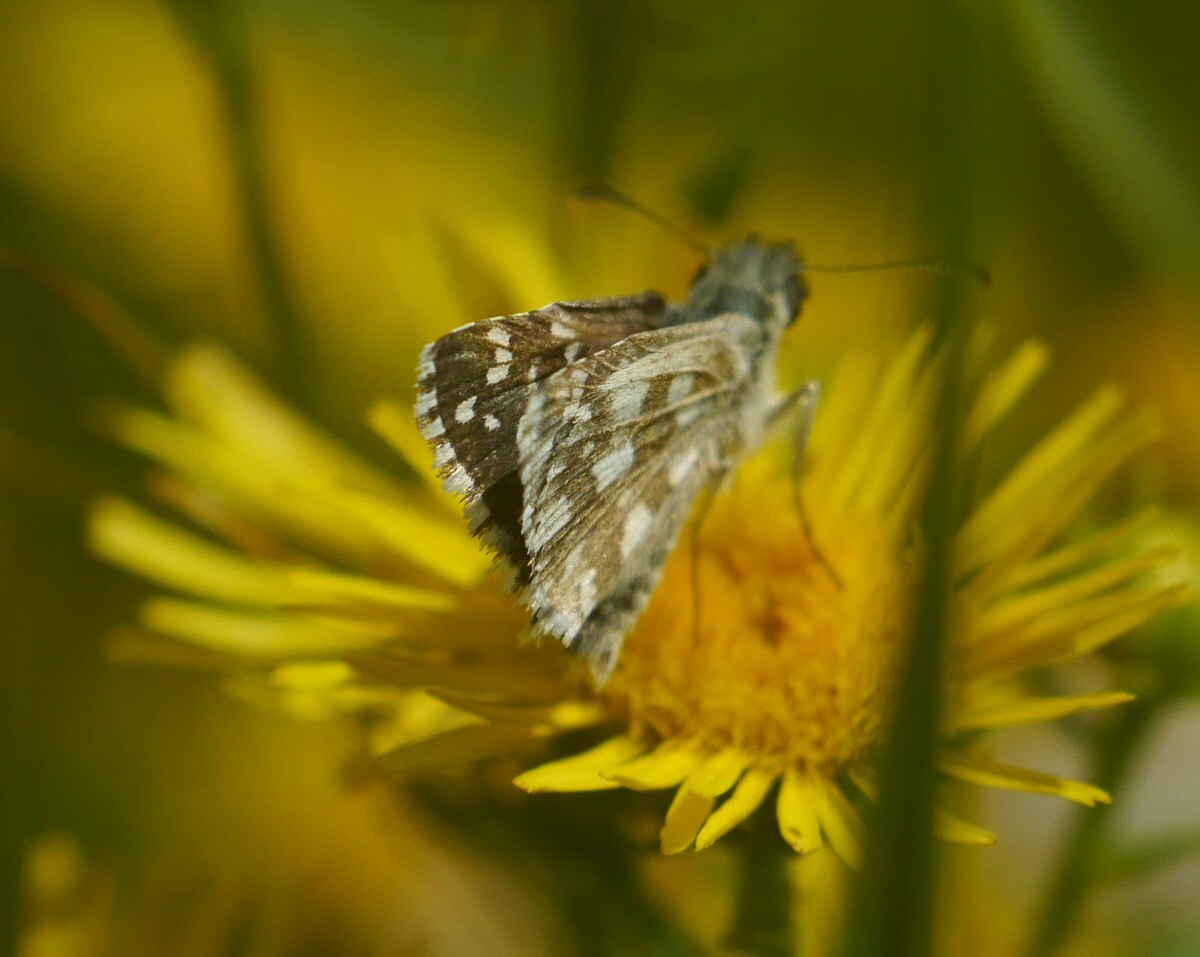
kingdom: Animalia
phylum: Arthropoda
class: Insecta
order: Lepidoptera
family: Hesperiidae
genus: Pyrgus
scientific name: Pyrgus armoricanus
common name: Oberthür's grizzled skipper
